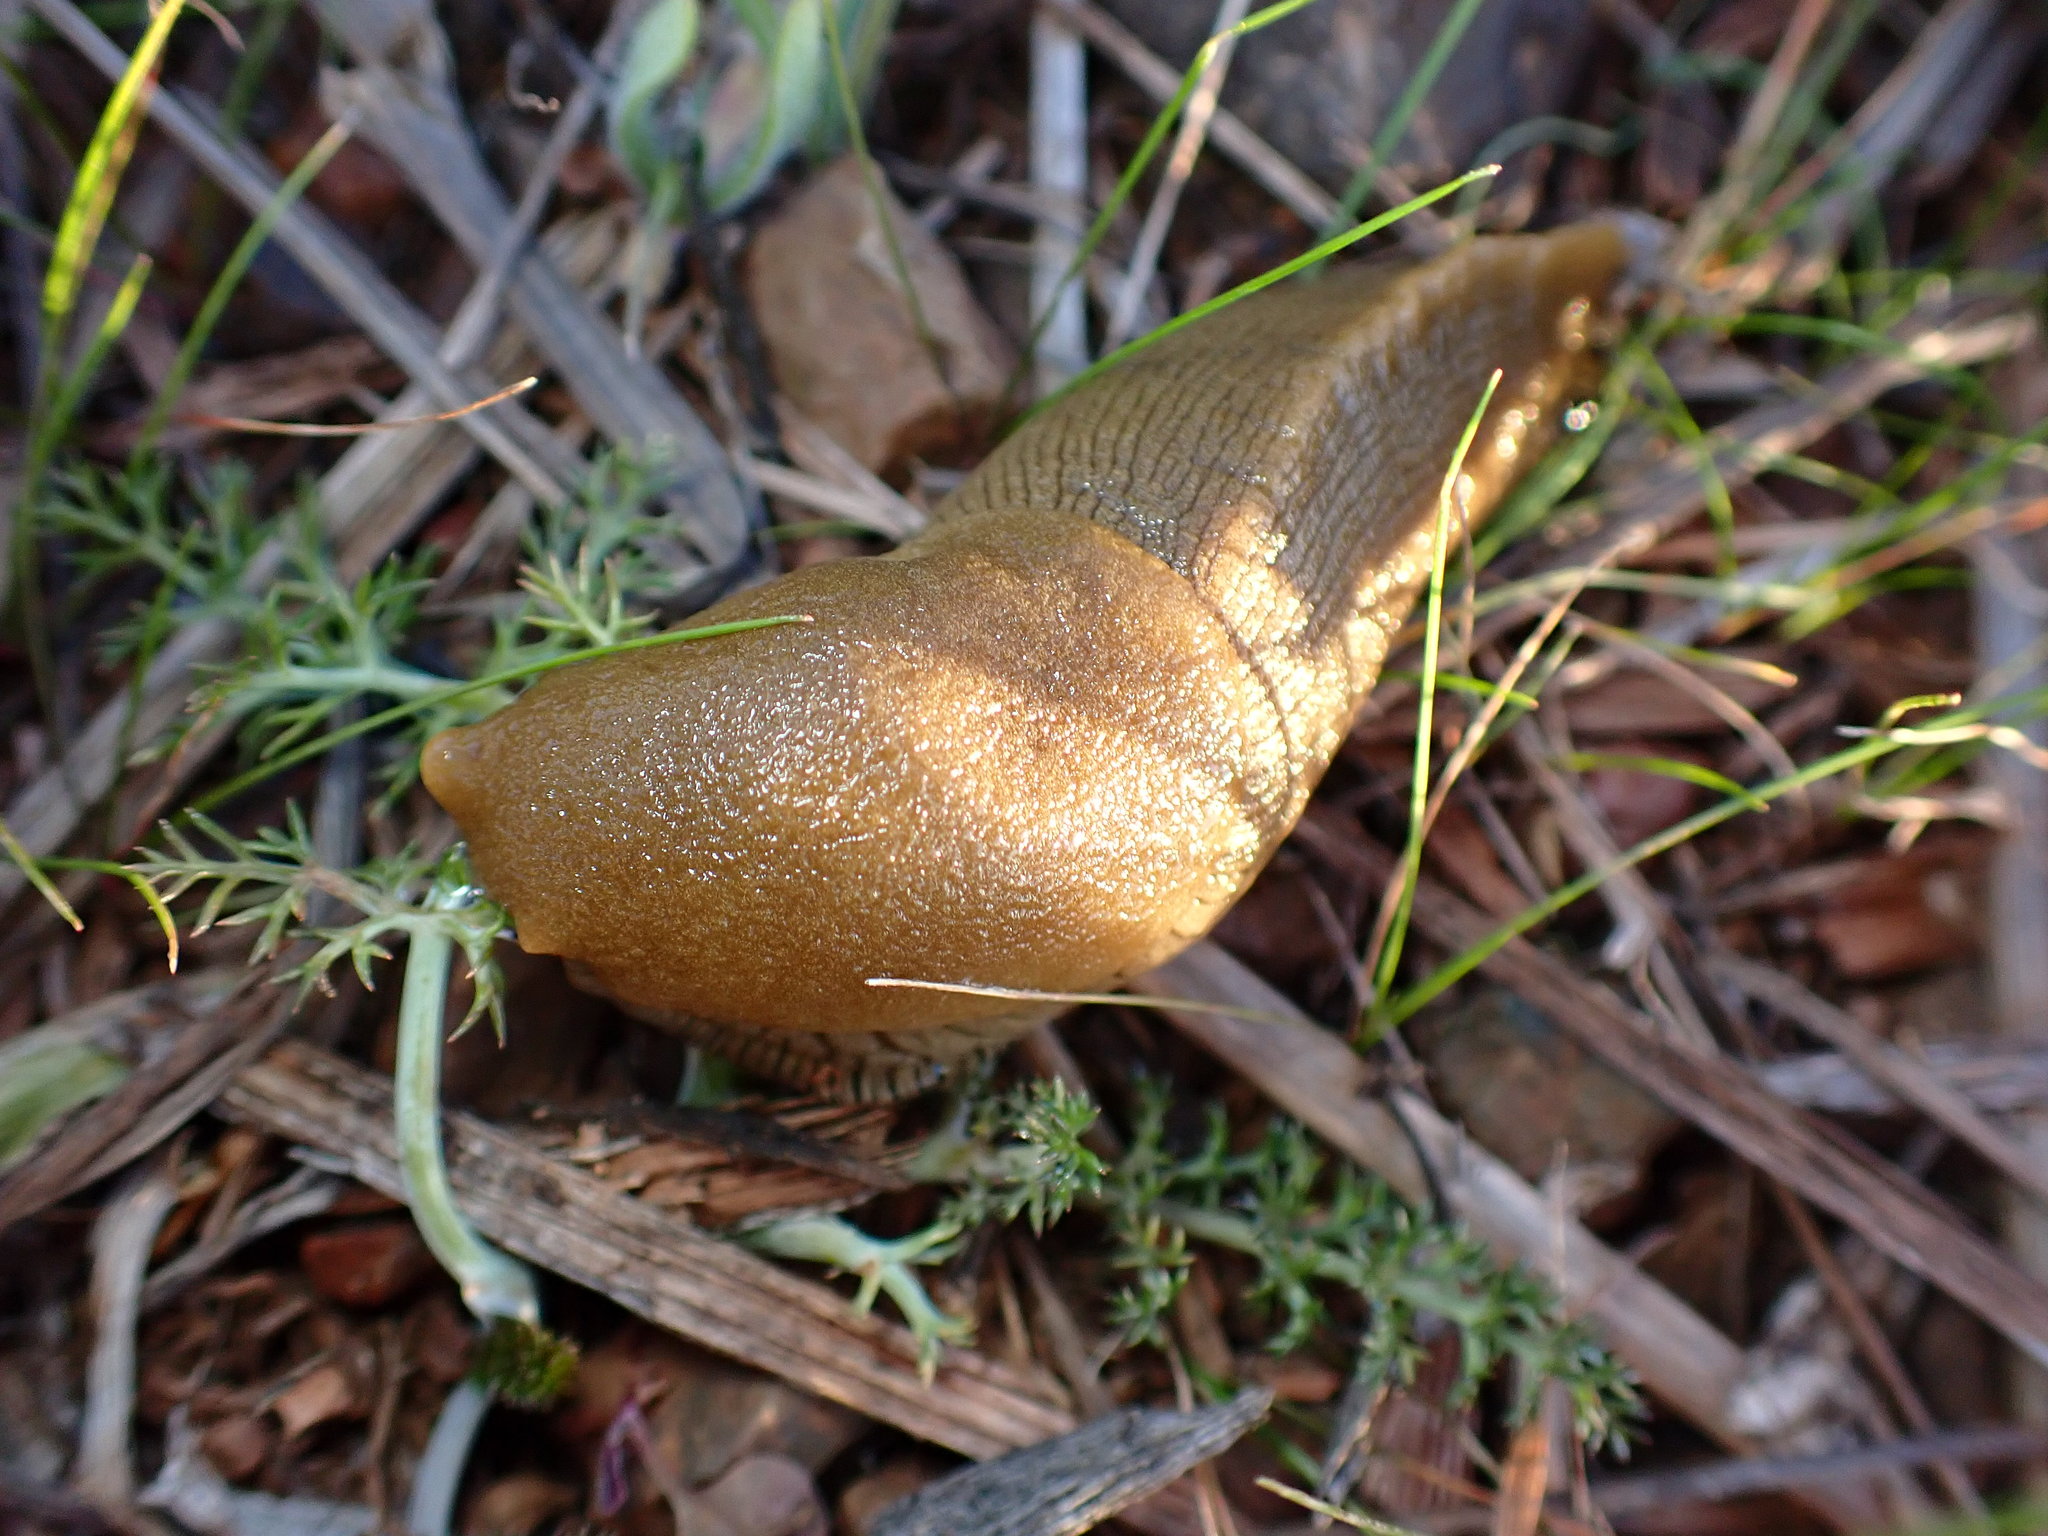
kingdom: Animalia
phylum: Mollusca
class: Gastropoda
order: Stylommatophora
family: Ariolimacidae
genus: Ariolimax
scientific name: Ariolimax buttoni
